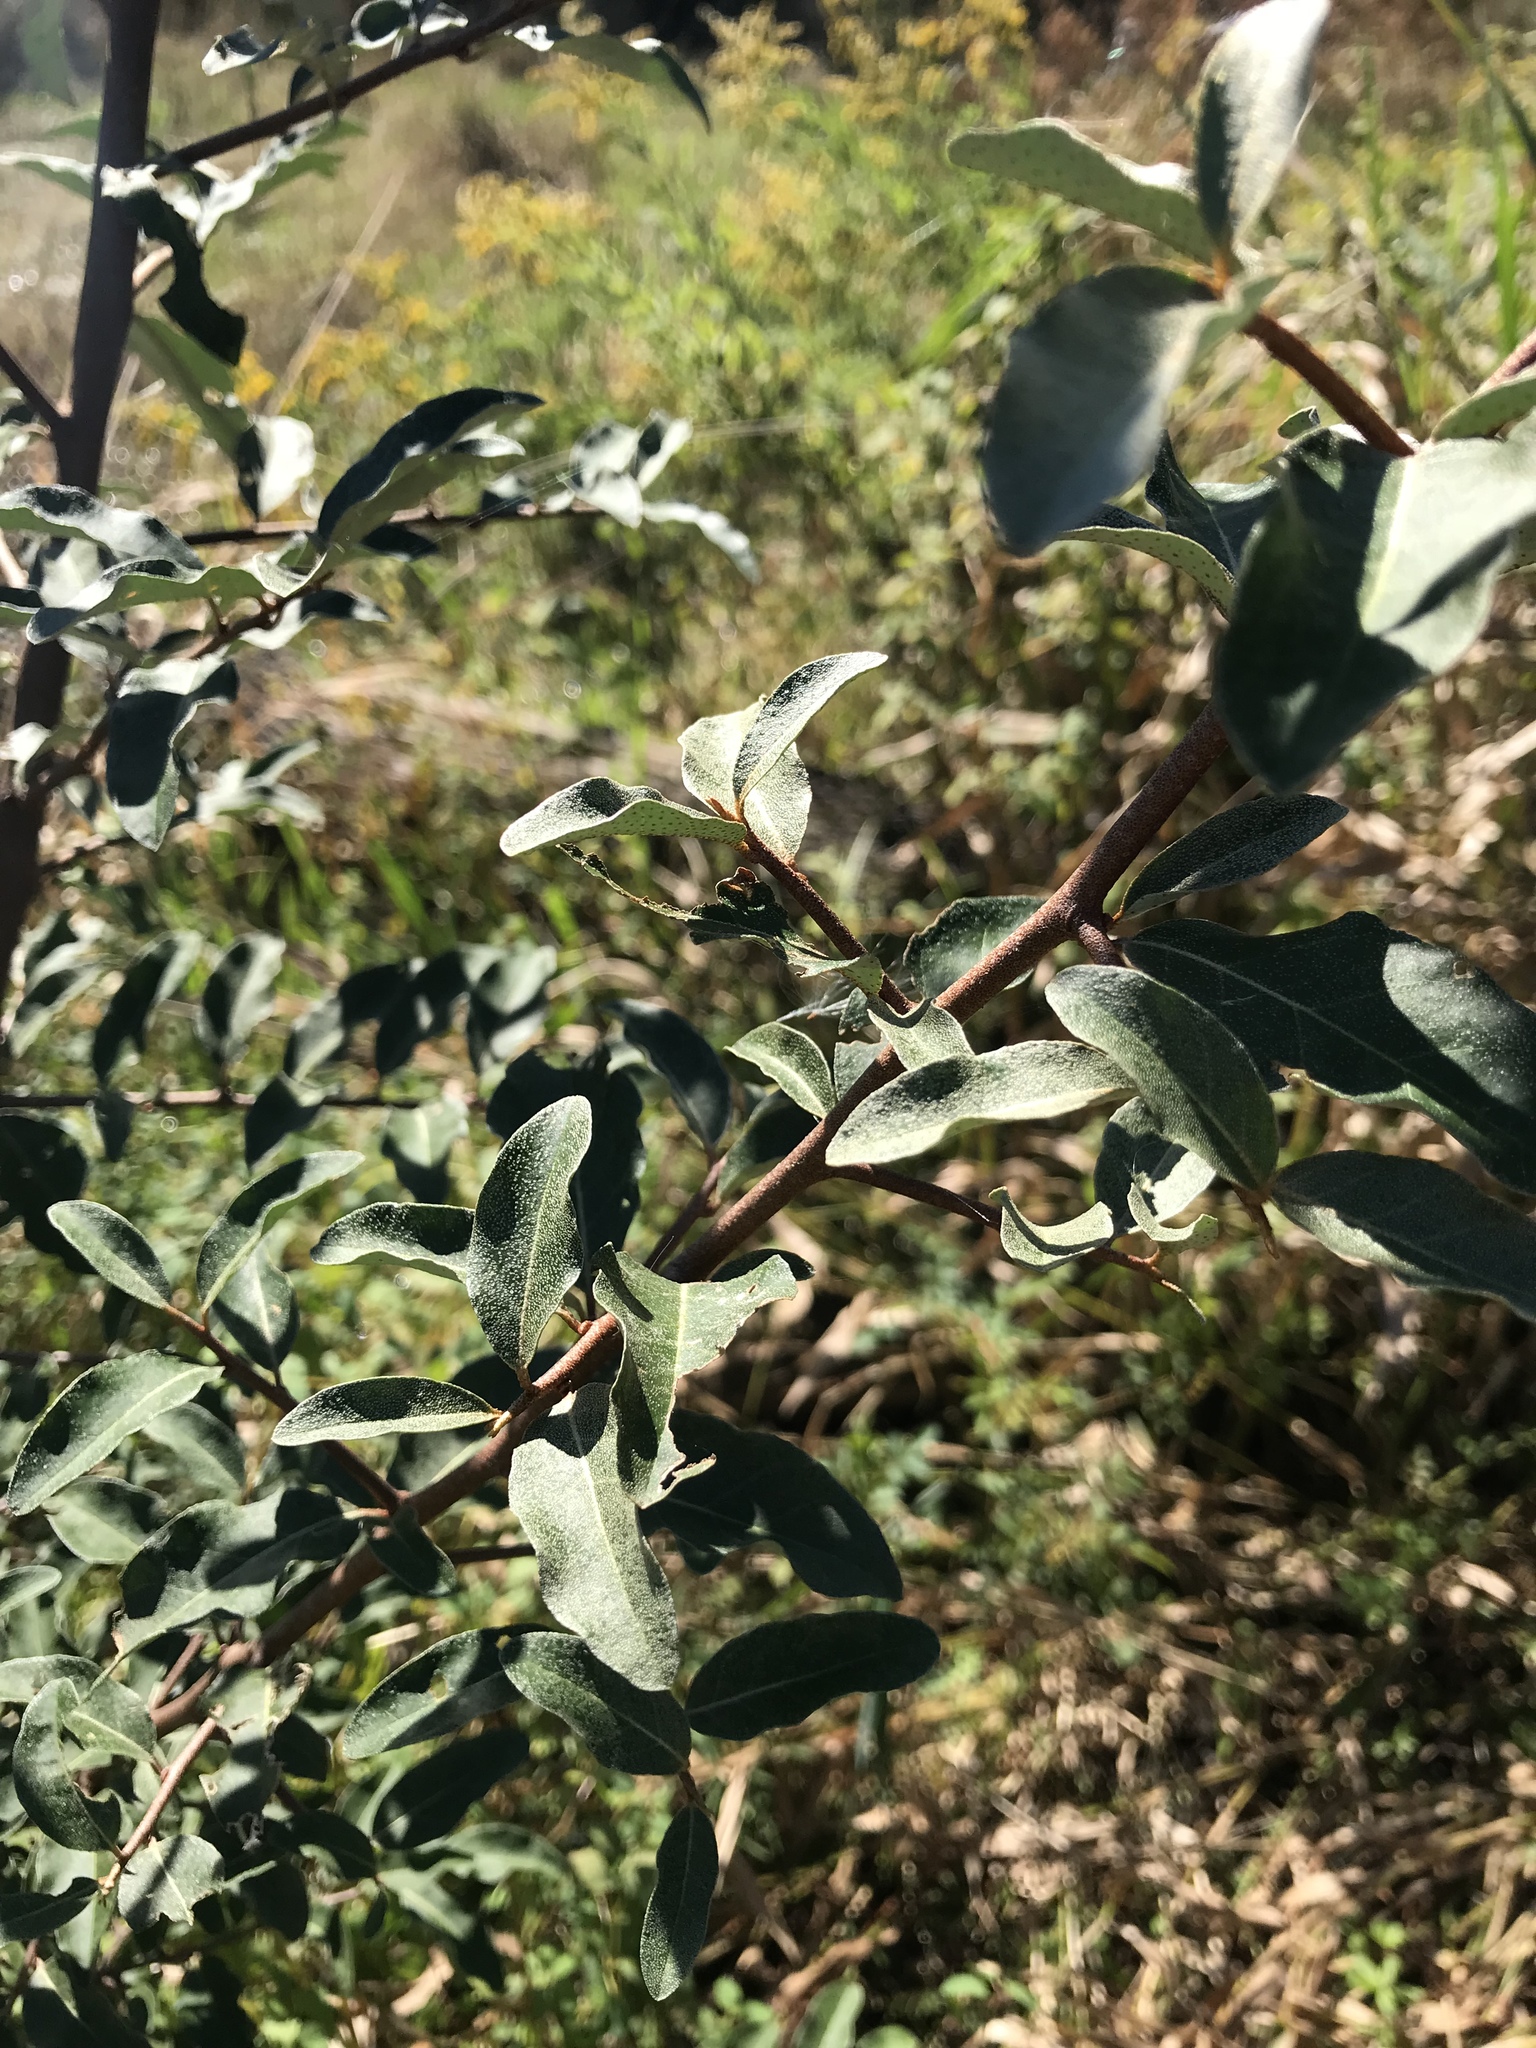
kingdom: Plantae
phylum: Tracheophyta
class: Magnoliopsida
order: Rosales
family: Elaeagnaceae
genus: Elaeagnus
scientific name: Elaeagnus umbellata
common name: Autumn olive
